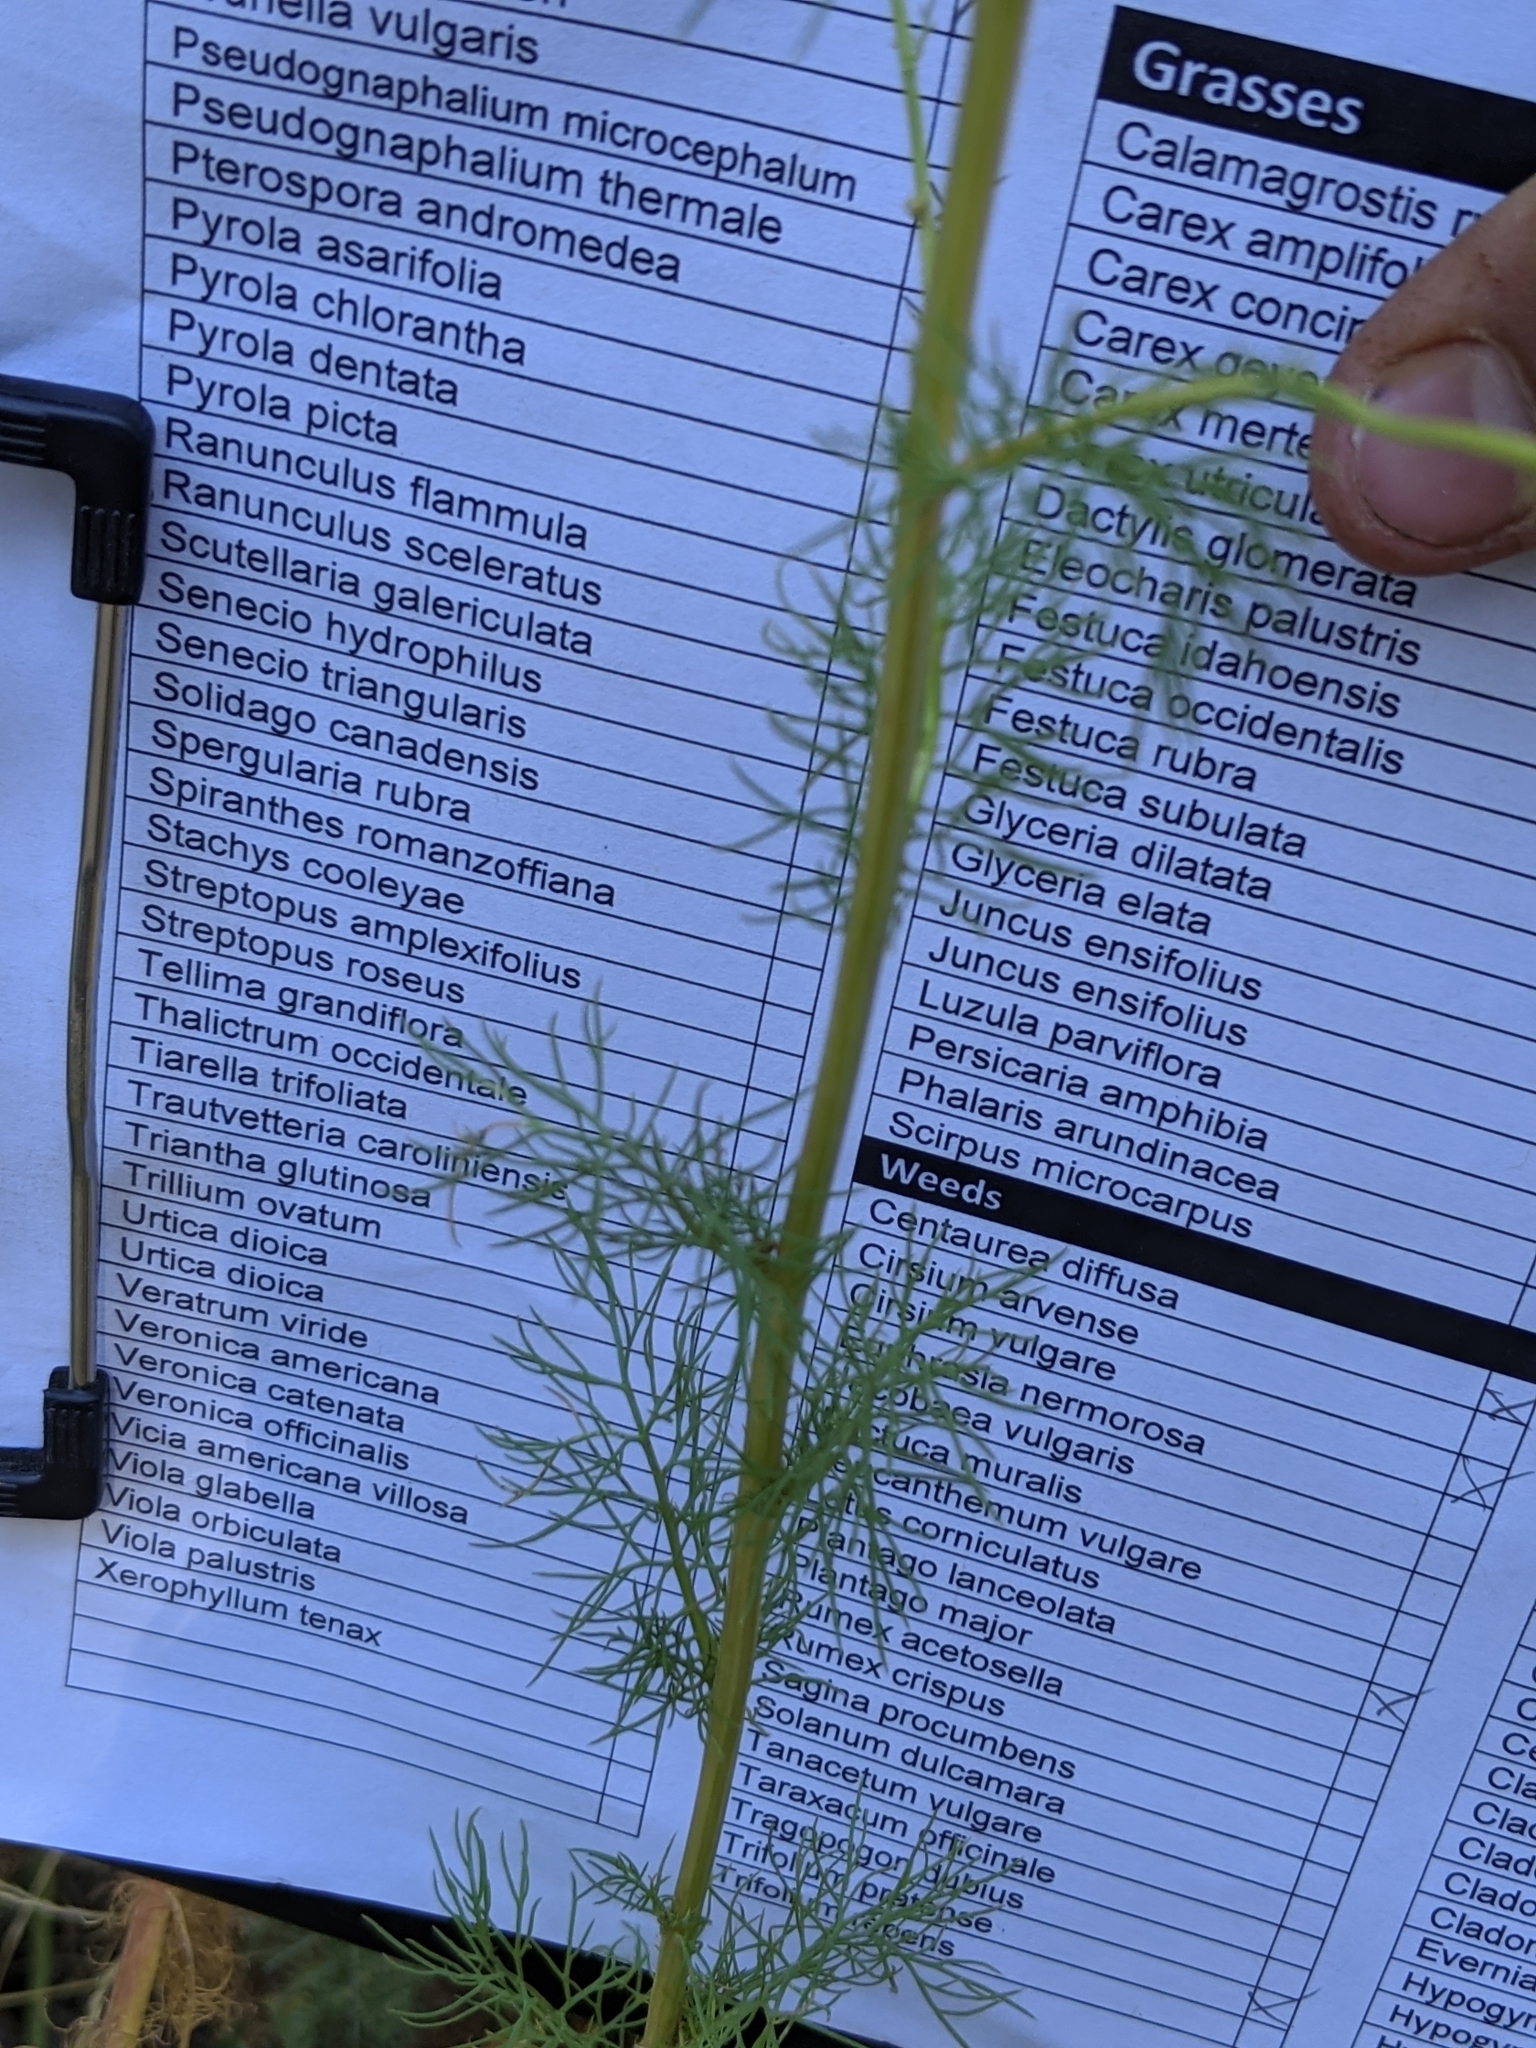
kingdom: Plantae
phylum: Tracheophyta
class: Magnoliopsida
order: Asterales
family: Asteraceae
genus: Tripleurospermum
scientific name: Tripleurospermum inodorum
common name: Scentless mayweed
